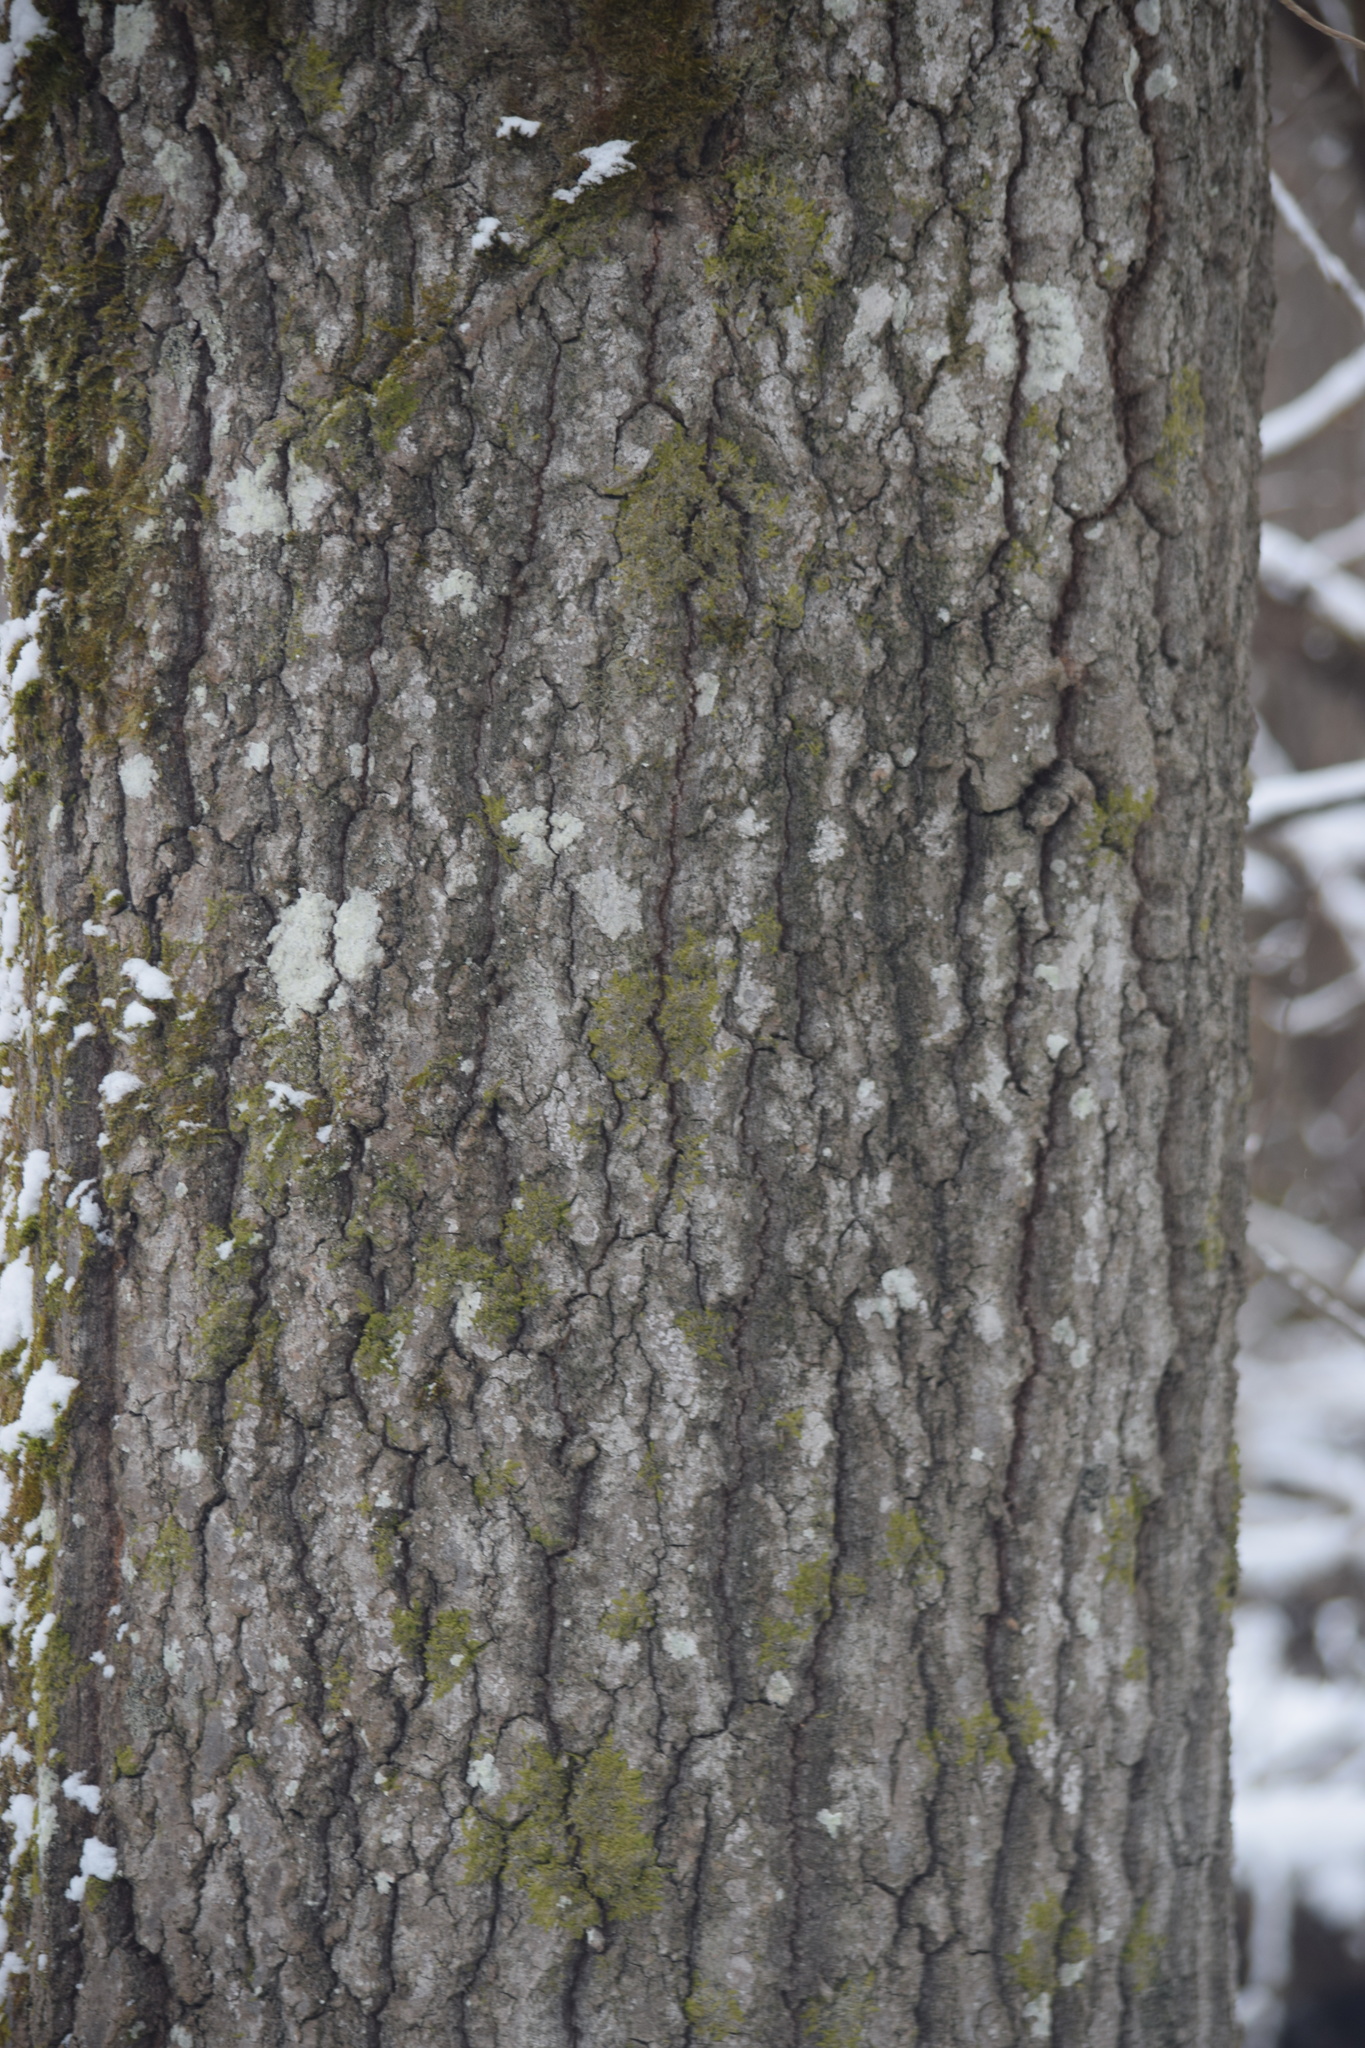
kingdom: Plantae
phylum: Tracheophyta
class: Magnoliopsida
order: Malpighiales
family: Salicaceae
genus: Populus
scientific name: Populus tremula
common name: European aspen
